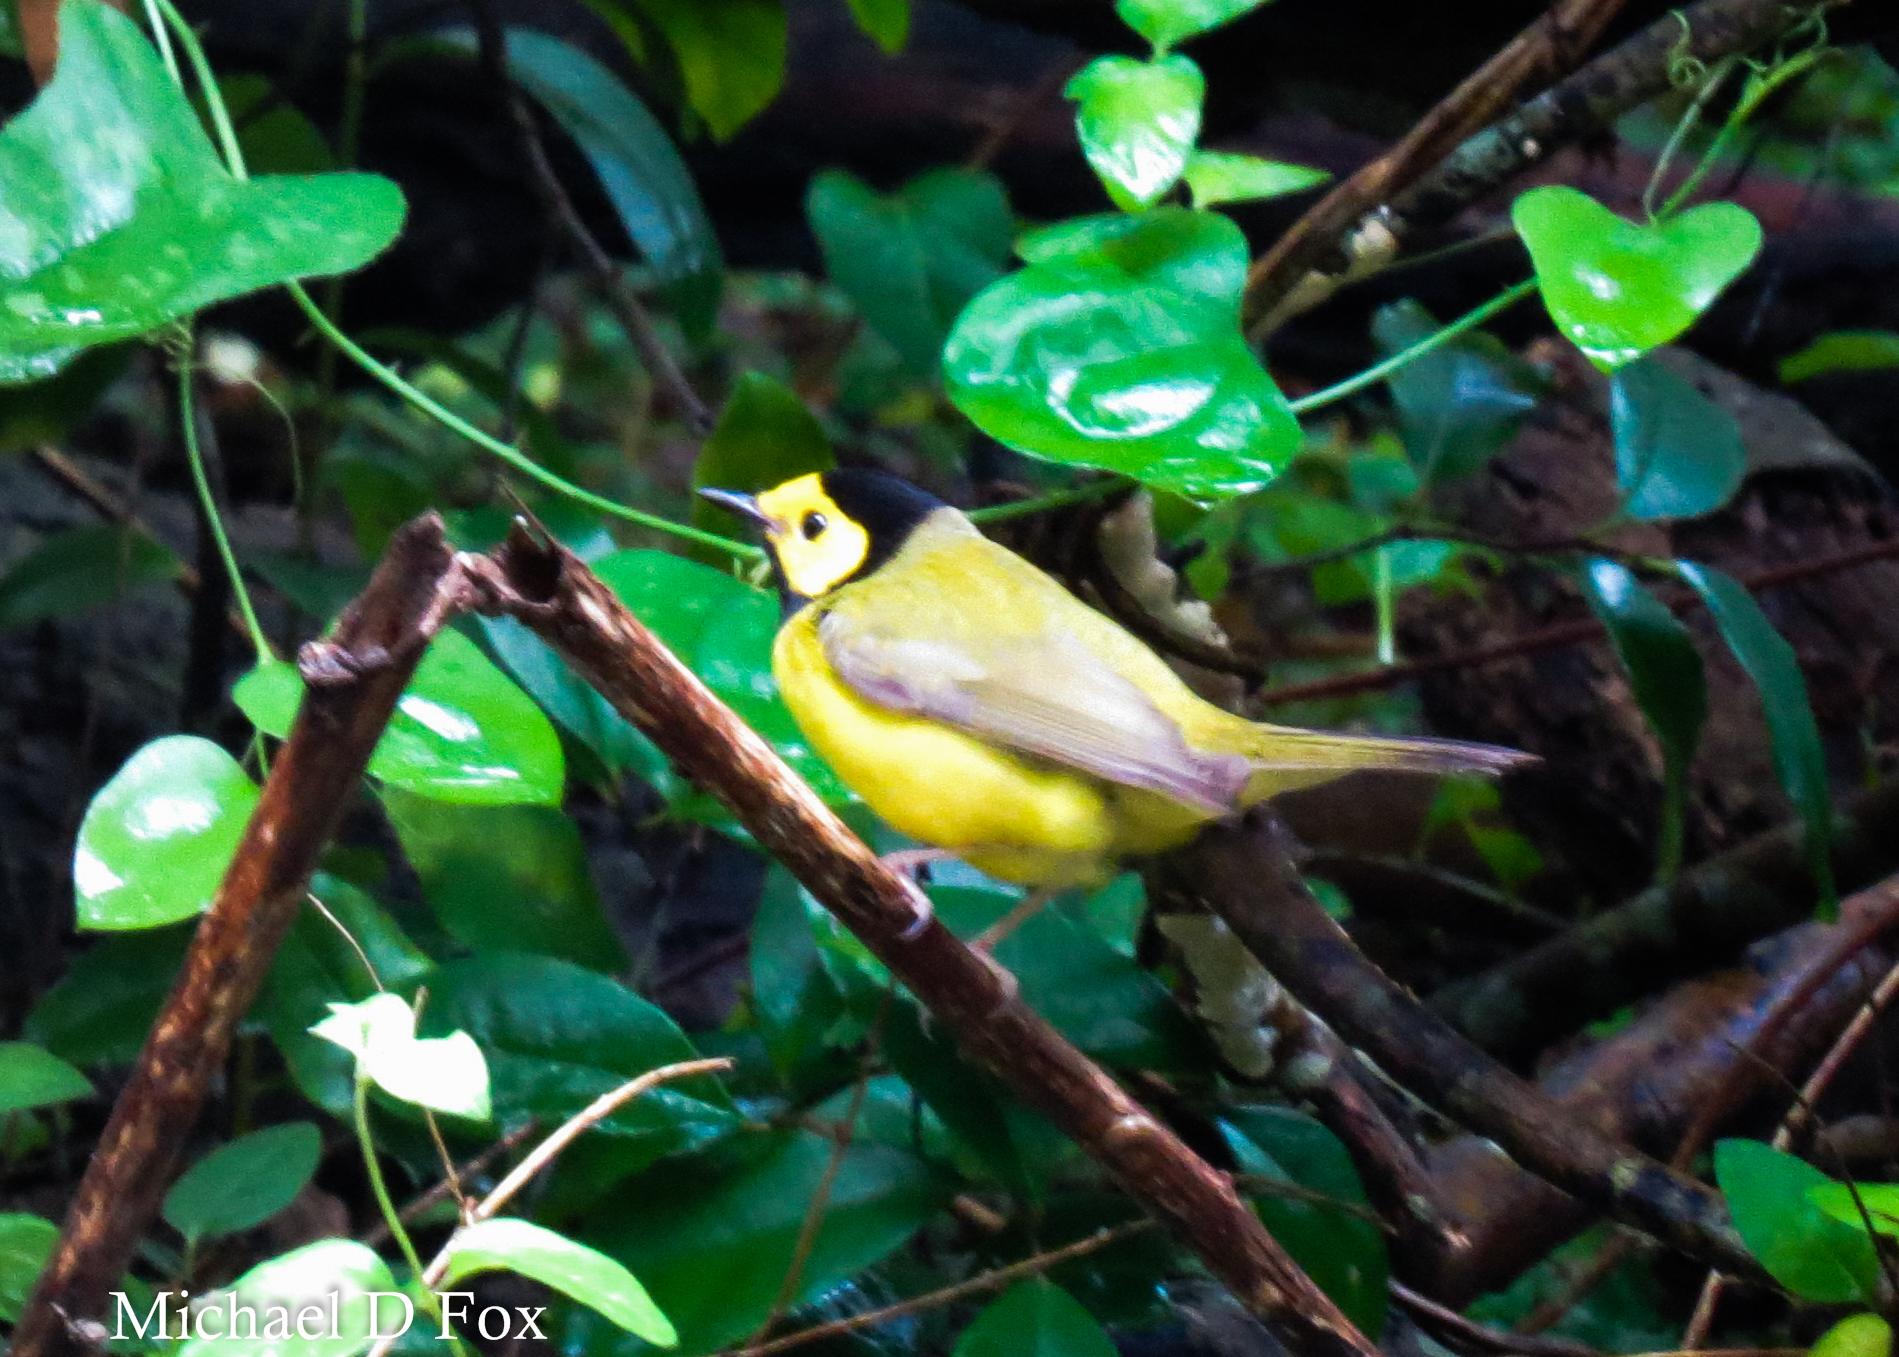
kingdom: Animalia
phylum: Chordata
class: Aves
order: Passeriformes
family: Parulidae
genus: Setophaga
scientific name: Setophaga citrina
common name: Hooded warbler
